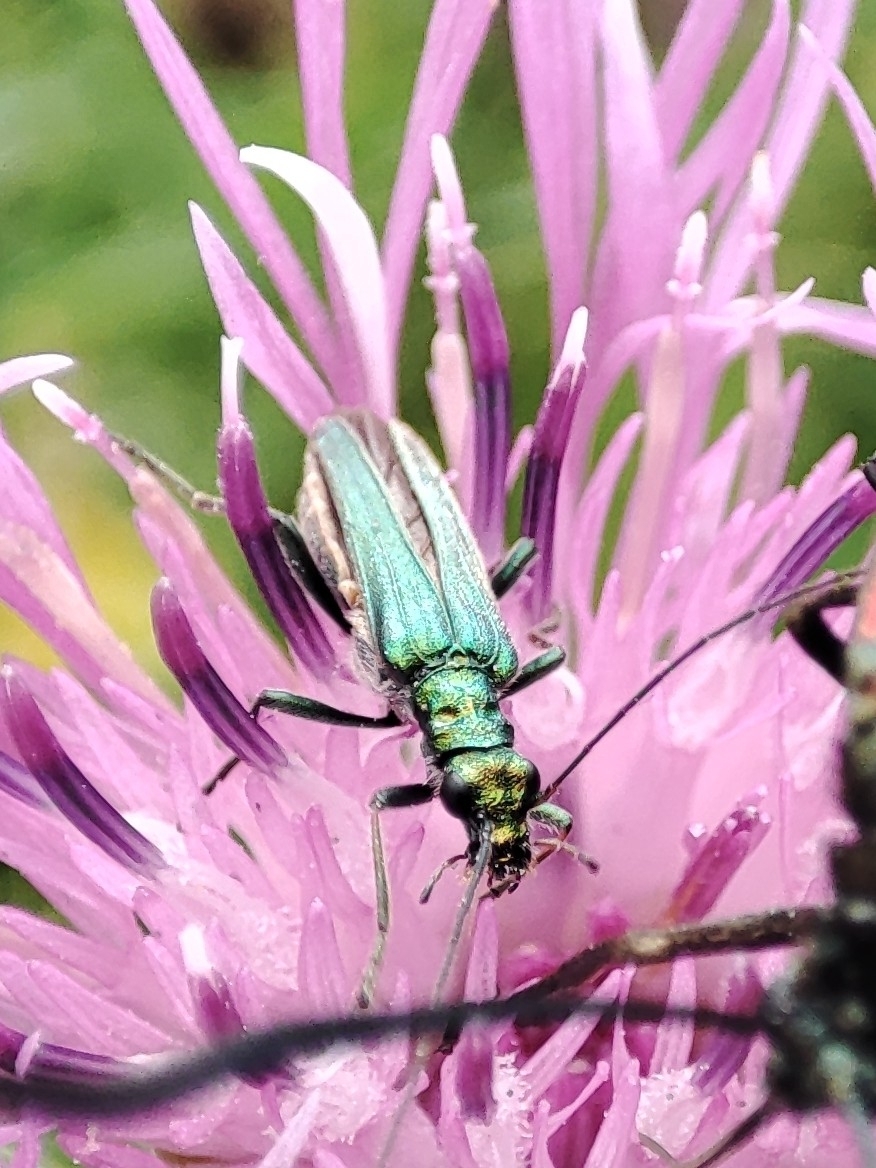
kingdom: Animalia
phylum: Arthropoda
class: Insecta
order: Coleoptera
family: Oedemeridae
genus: Oedemera
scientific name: Oedemera nobilis
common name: Swollen-thighed beetle
